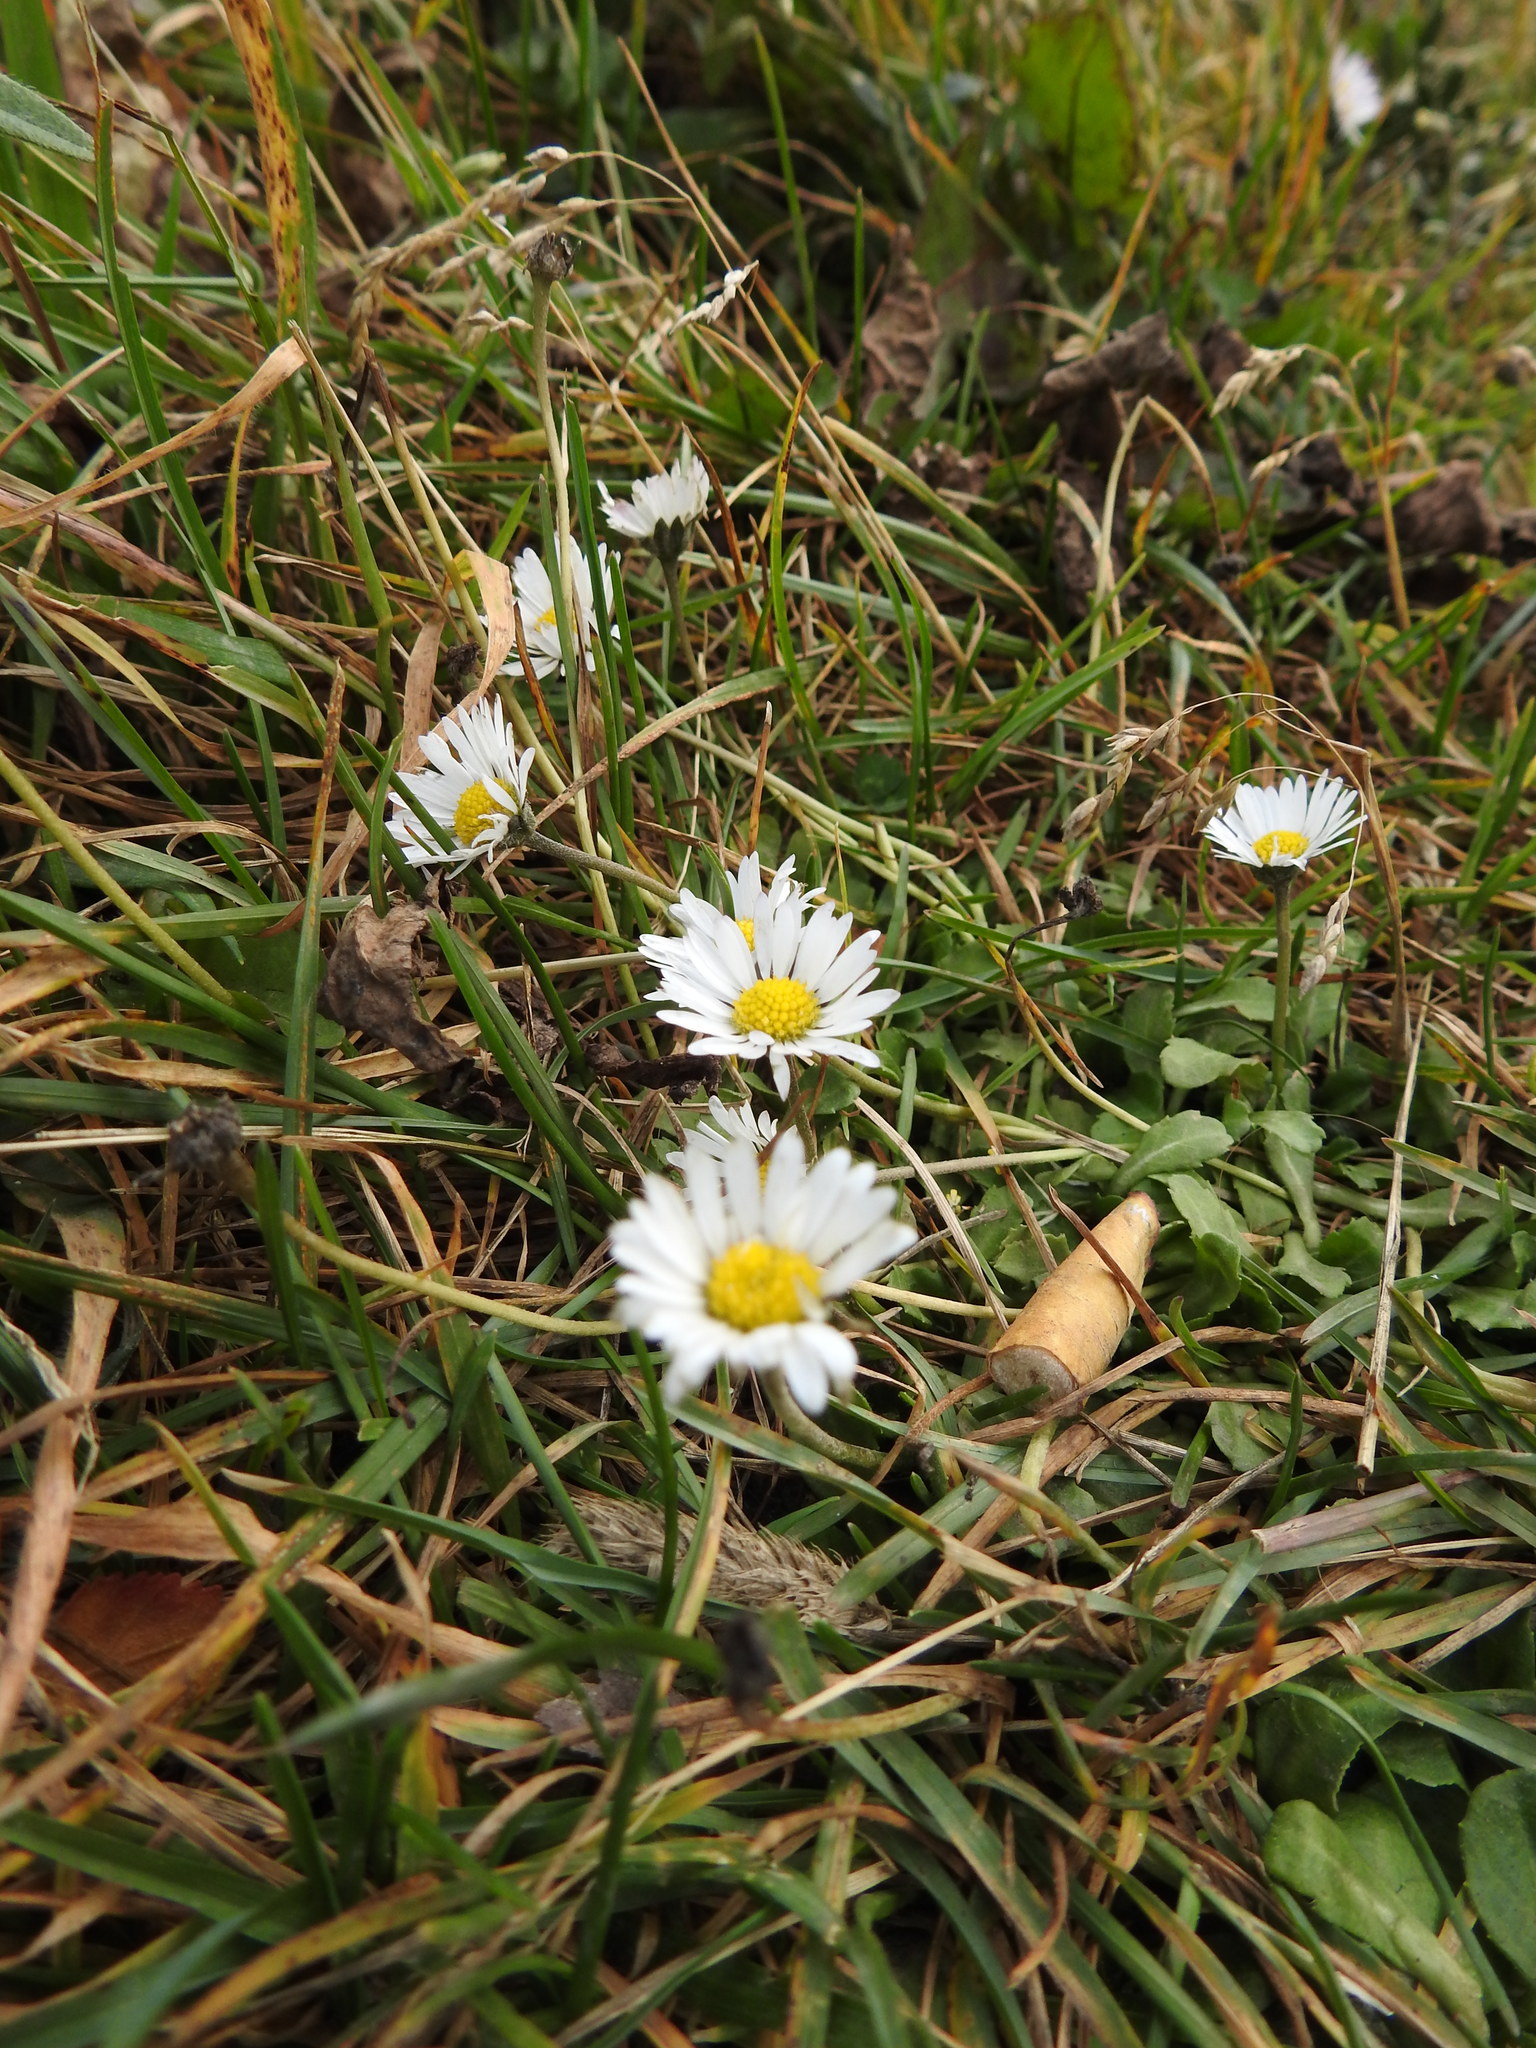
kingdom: Plantae
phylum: Tracheophyta
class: Magnoliopsida
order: Asterales
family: Asteraceae
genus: Bellis
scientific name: Bellis perennis
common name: Lawndaisy
